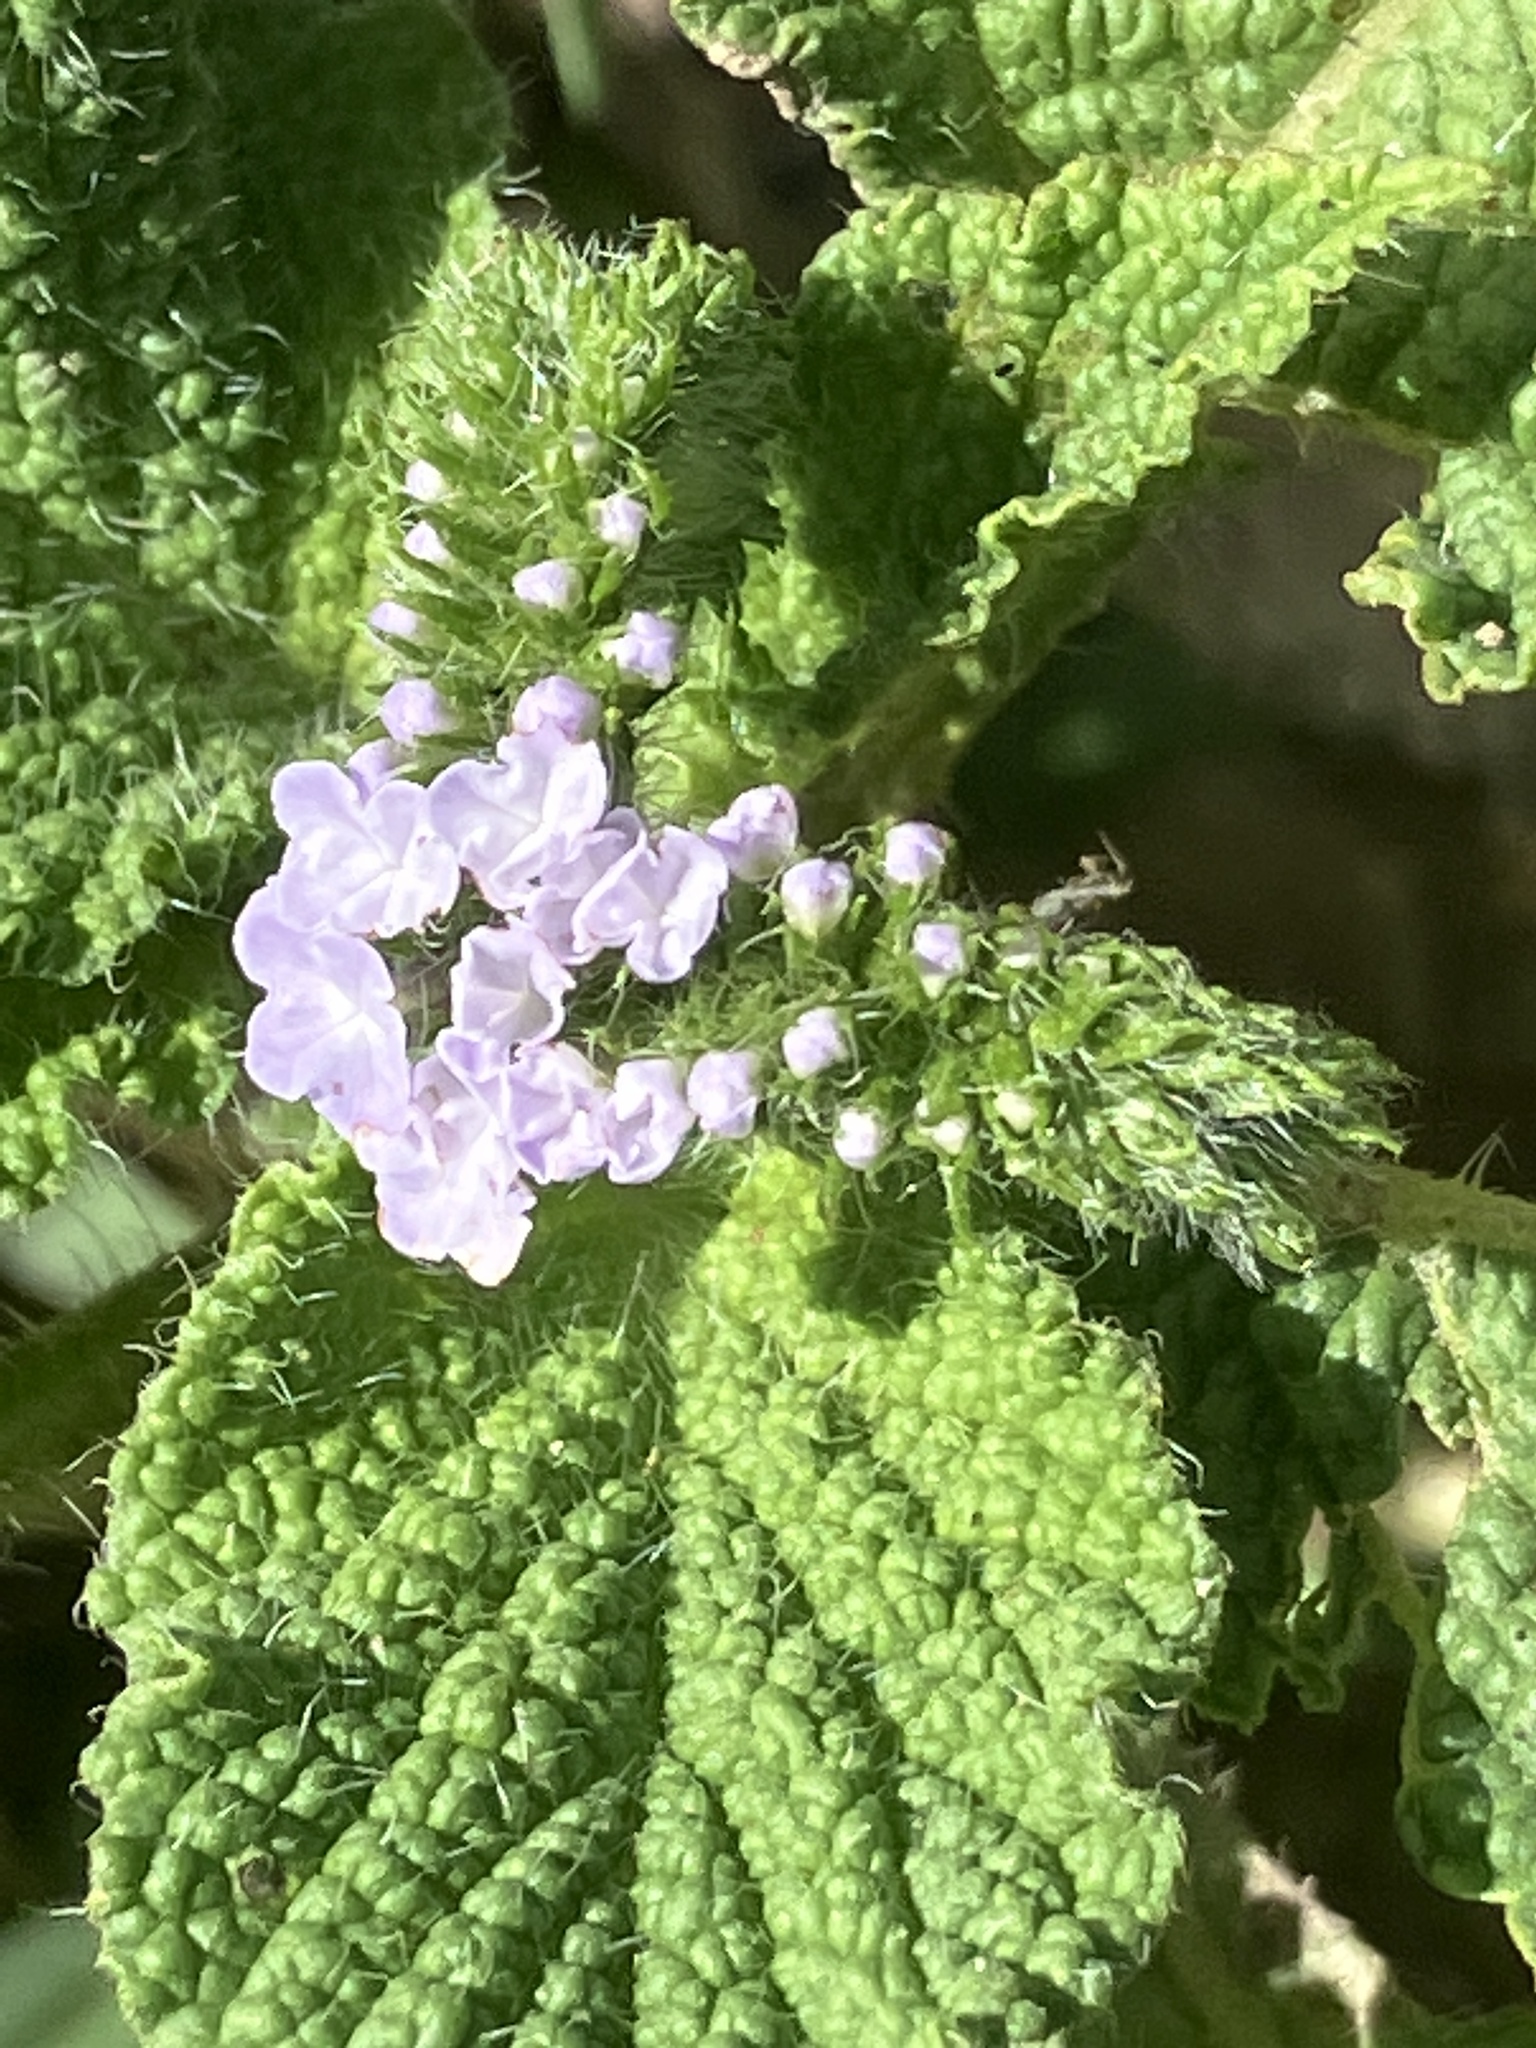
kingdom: Plantae
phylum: Tracheophyta
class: Magnoliopsida
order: Boraginales
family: Heliotropiaceae
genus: Heliotropium
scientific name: Heliotropium indicum
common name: Indian heliotrope
